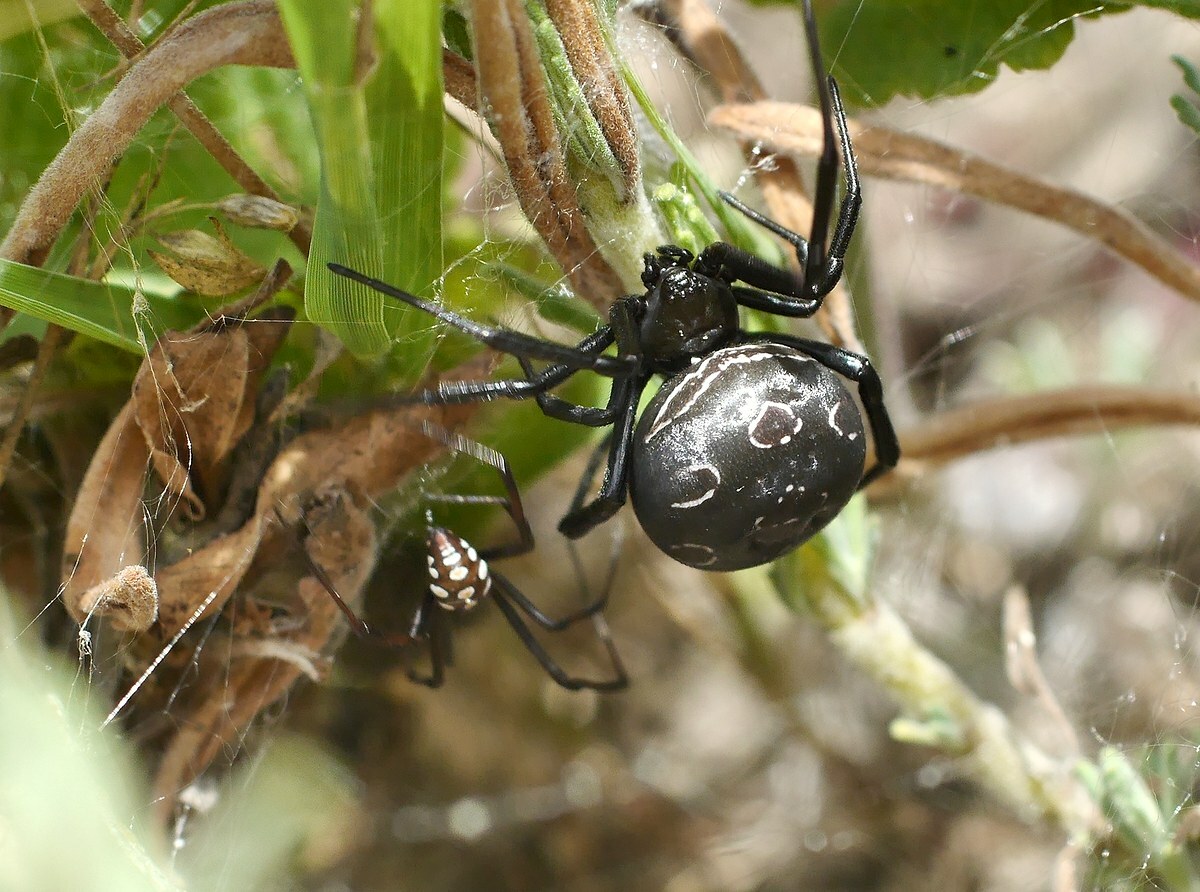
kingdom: Animalia
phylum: Arthropoda
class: Arachnida
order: Araneae
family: Theridiidae
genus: Latrodectus
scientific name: Latrodectus tredecimguttatus
